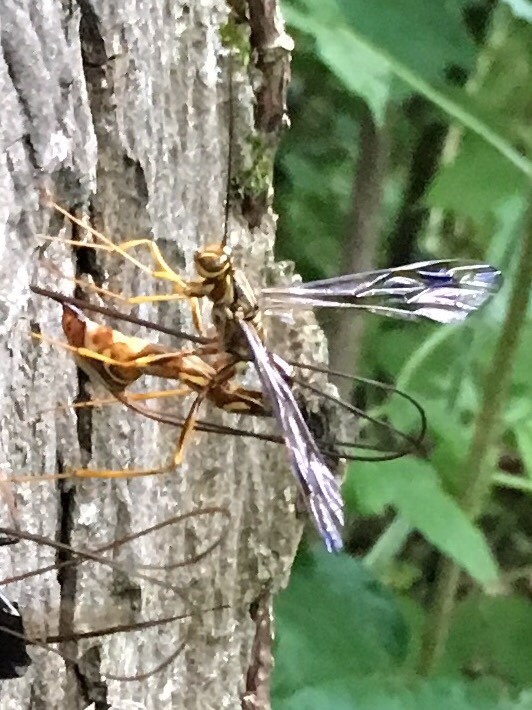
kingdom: Animalia
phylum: Arthropoda
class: Insecta
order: Hymenoptera
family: Ichneumonidae
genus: Megarhyssa
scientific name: Megarhyssa macrura
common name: Long-tailed giant ichneumonid wasp
